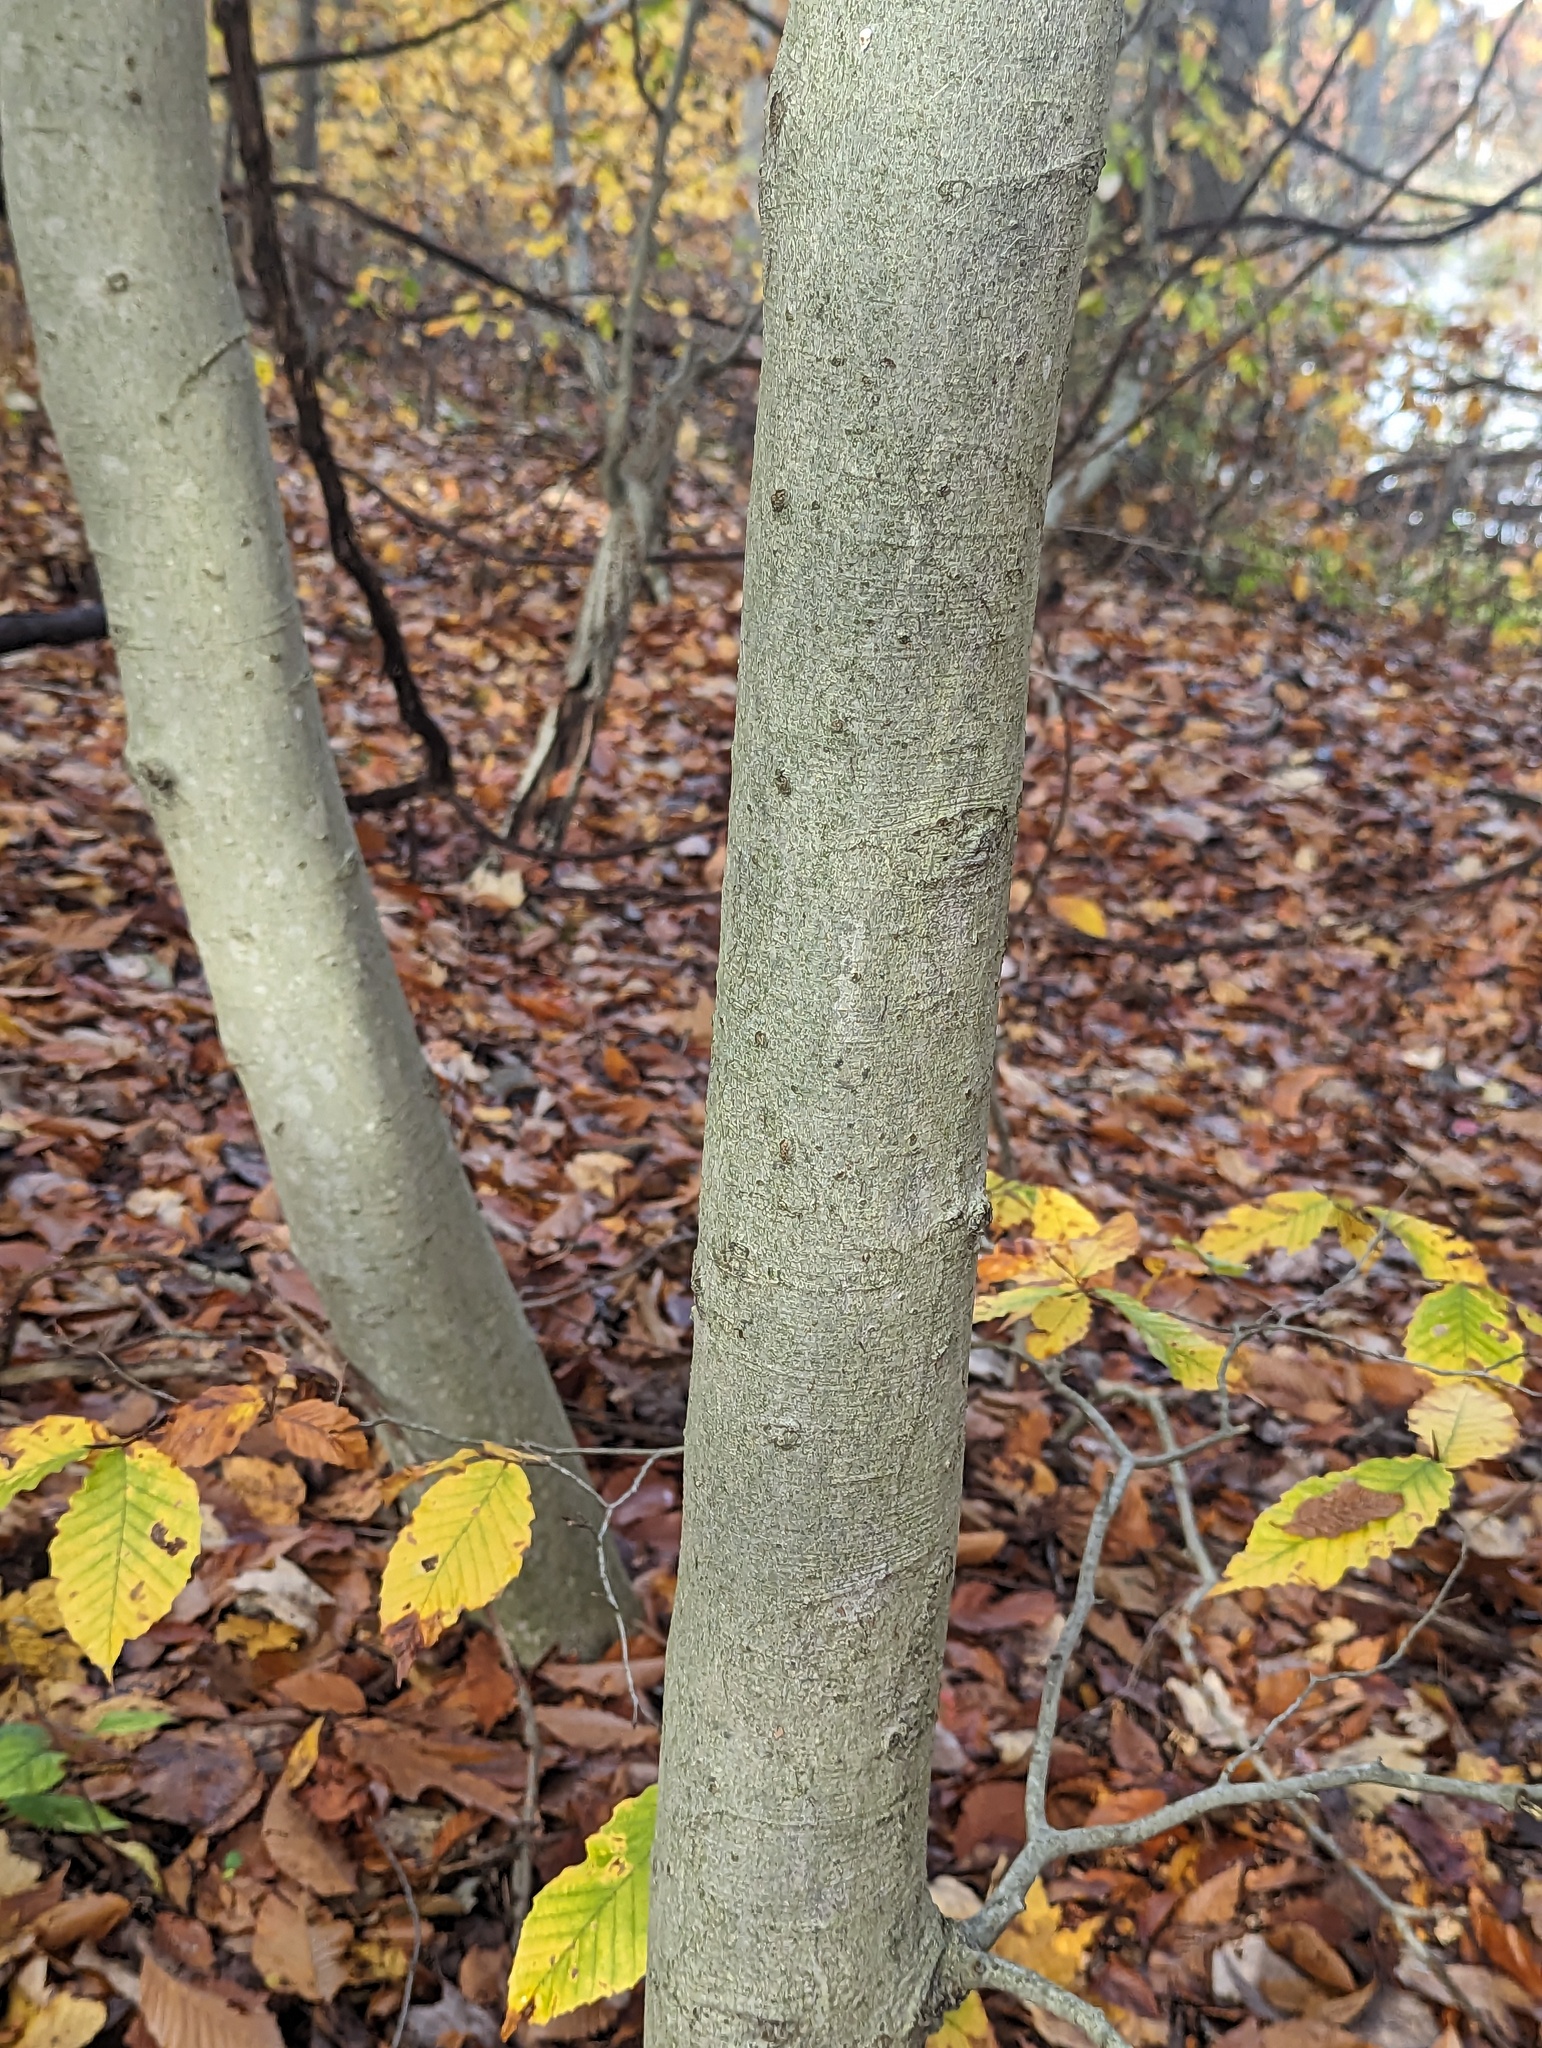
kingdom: Plantae
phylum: Tracheophyta
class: Magnoliopsida
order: Fagales
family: Fagaceae
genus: Fagus
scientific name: Fagus grandifolia
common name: American beech
